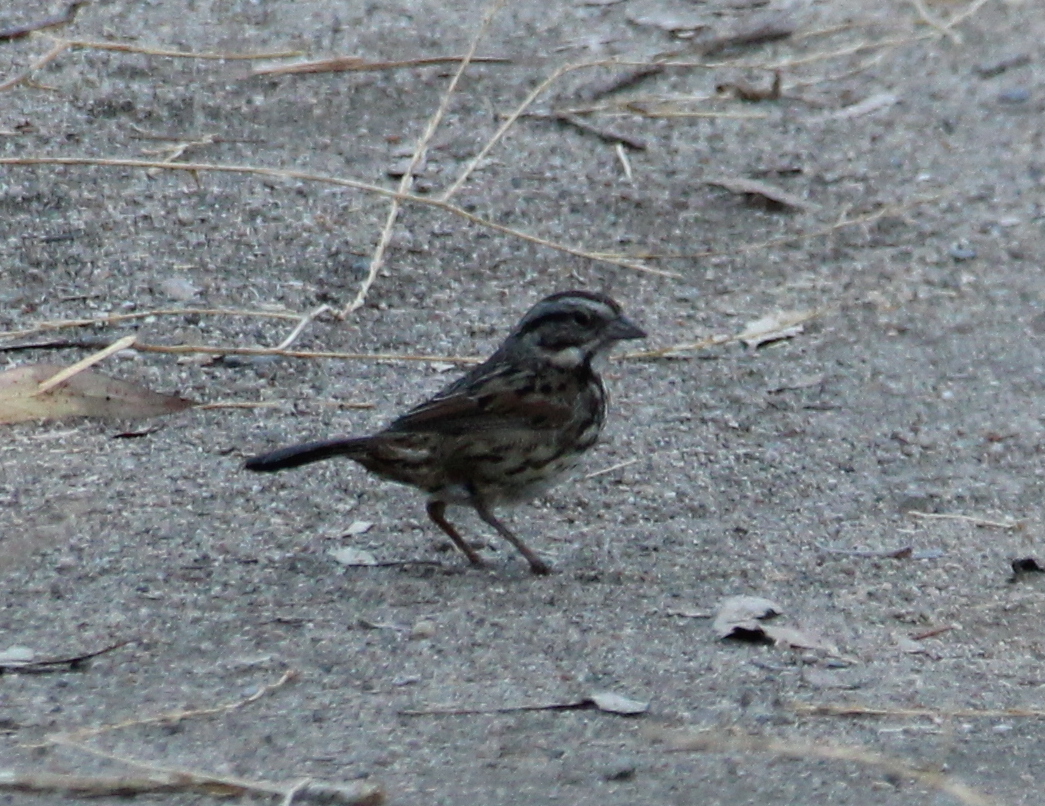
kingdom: Animalia
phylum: Chordata
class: Aves
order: Passeriformes
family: Passerellidae
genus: Melospiza
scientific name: Melospiza melodia
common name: Song sparrow
